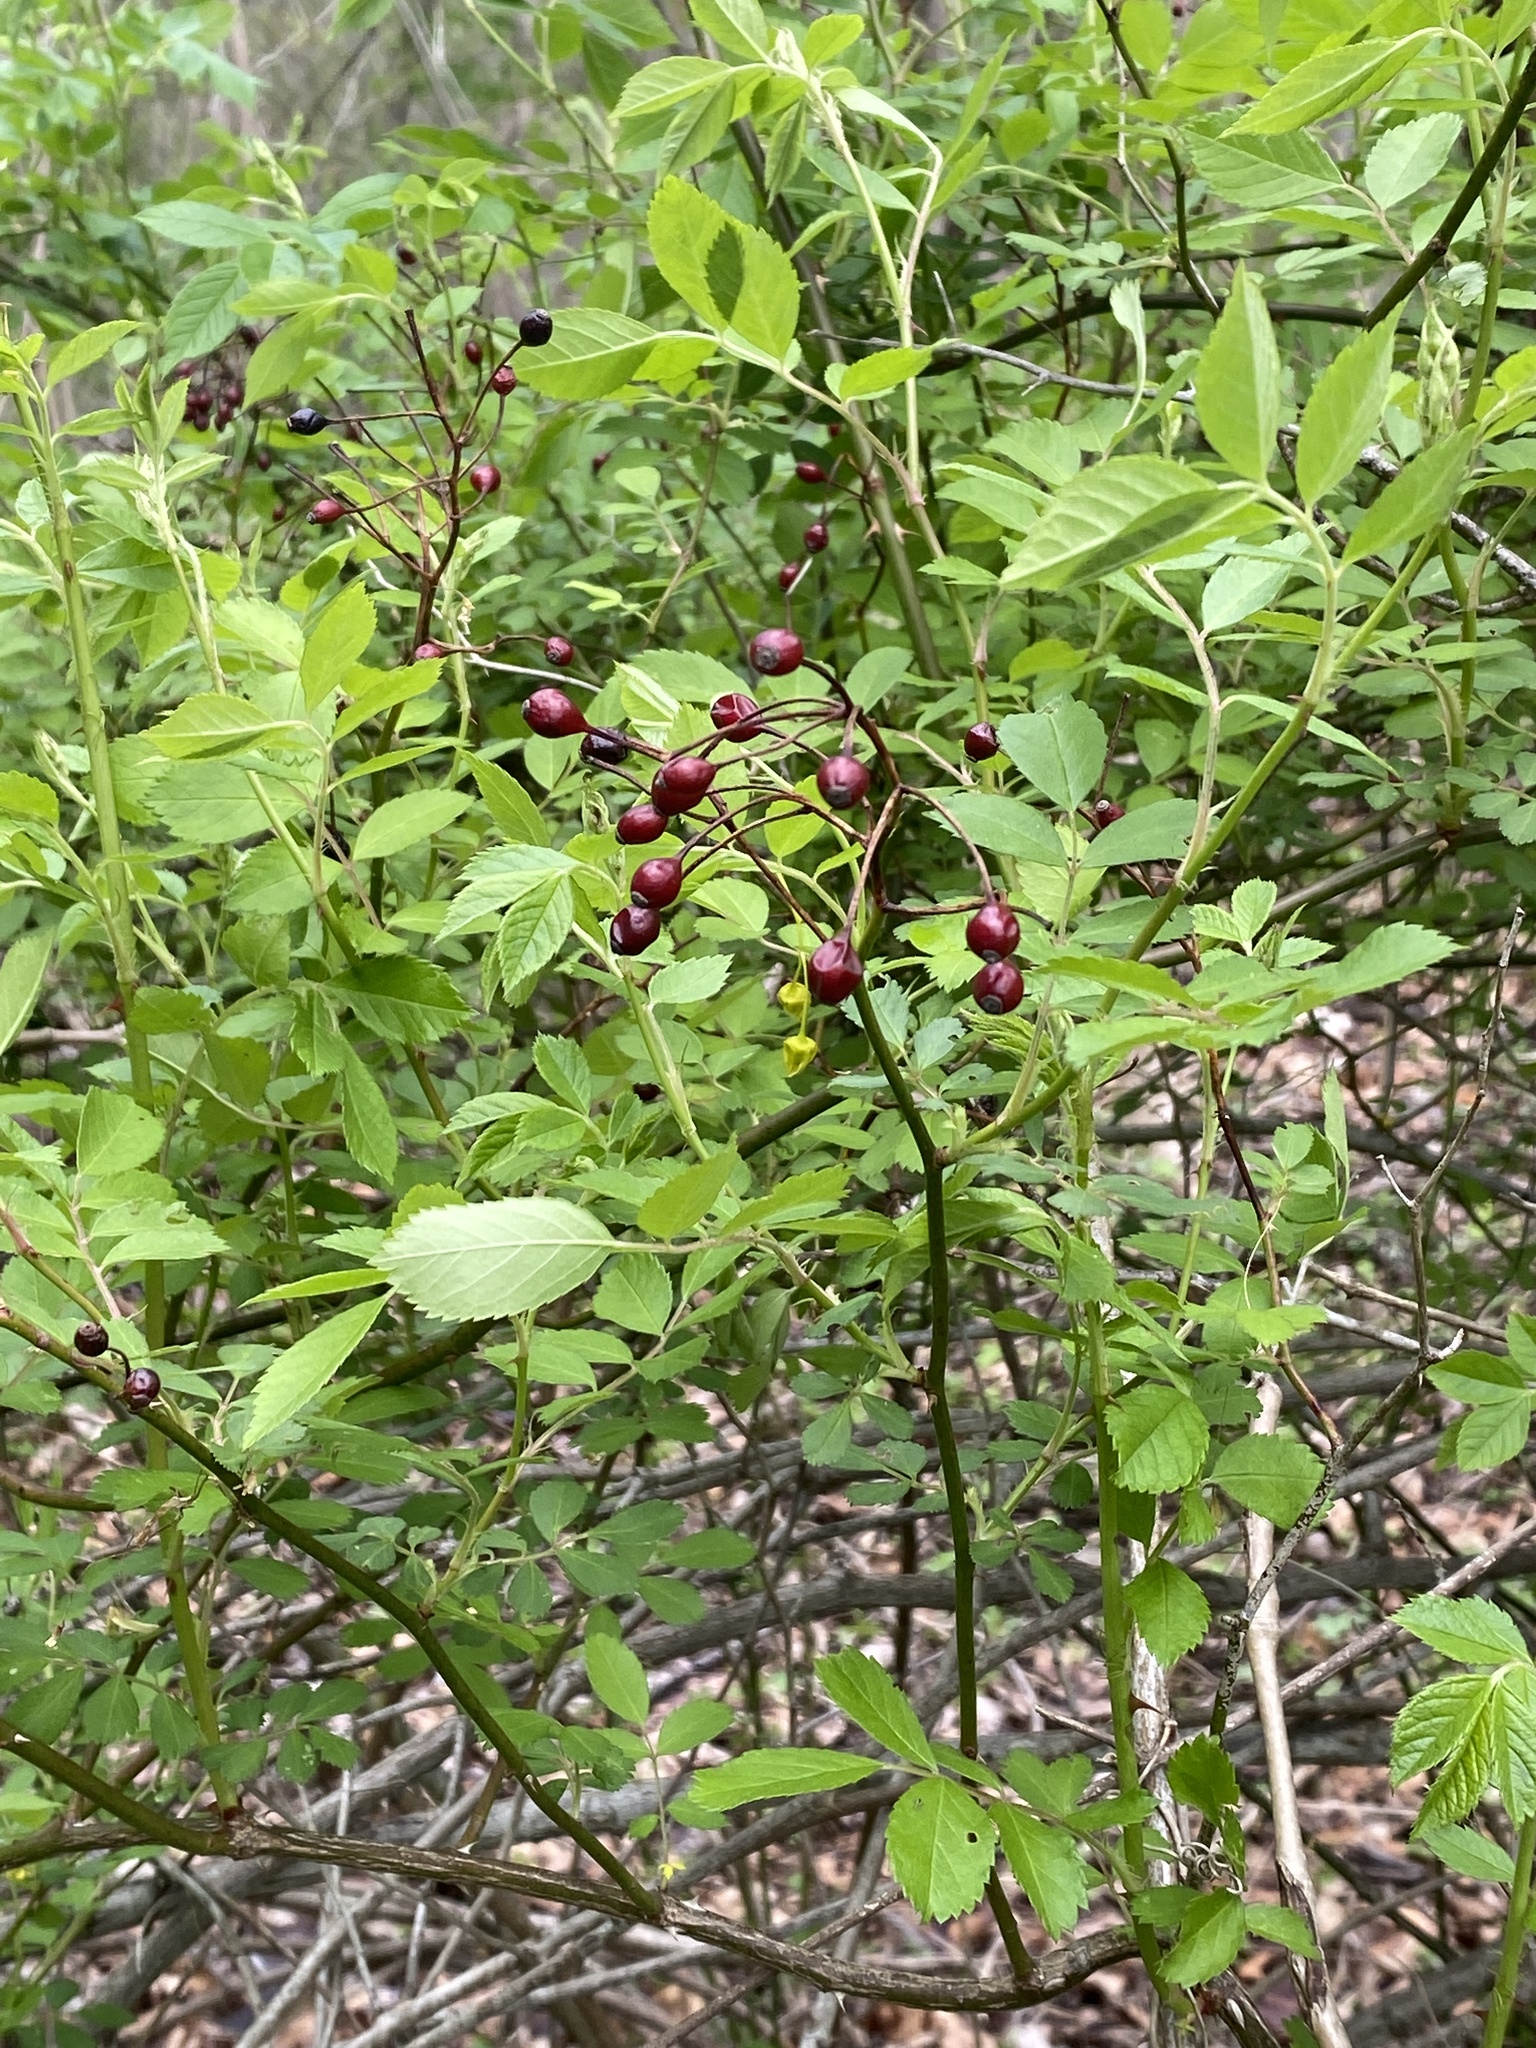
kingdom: Plantae
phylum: Tracheophyta
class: Magnoliopsida
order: Rosales
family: Rosaceae
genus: Rosa
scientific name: Rosa multiflora
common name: Multiflora rose
